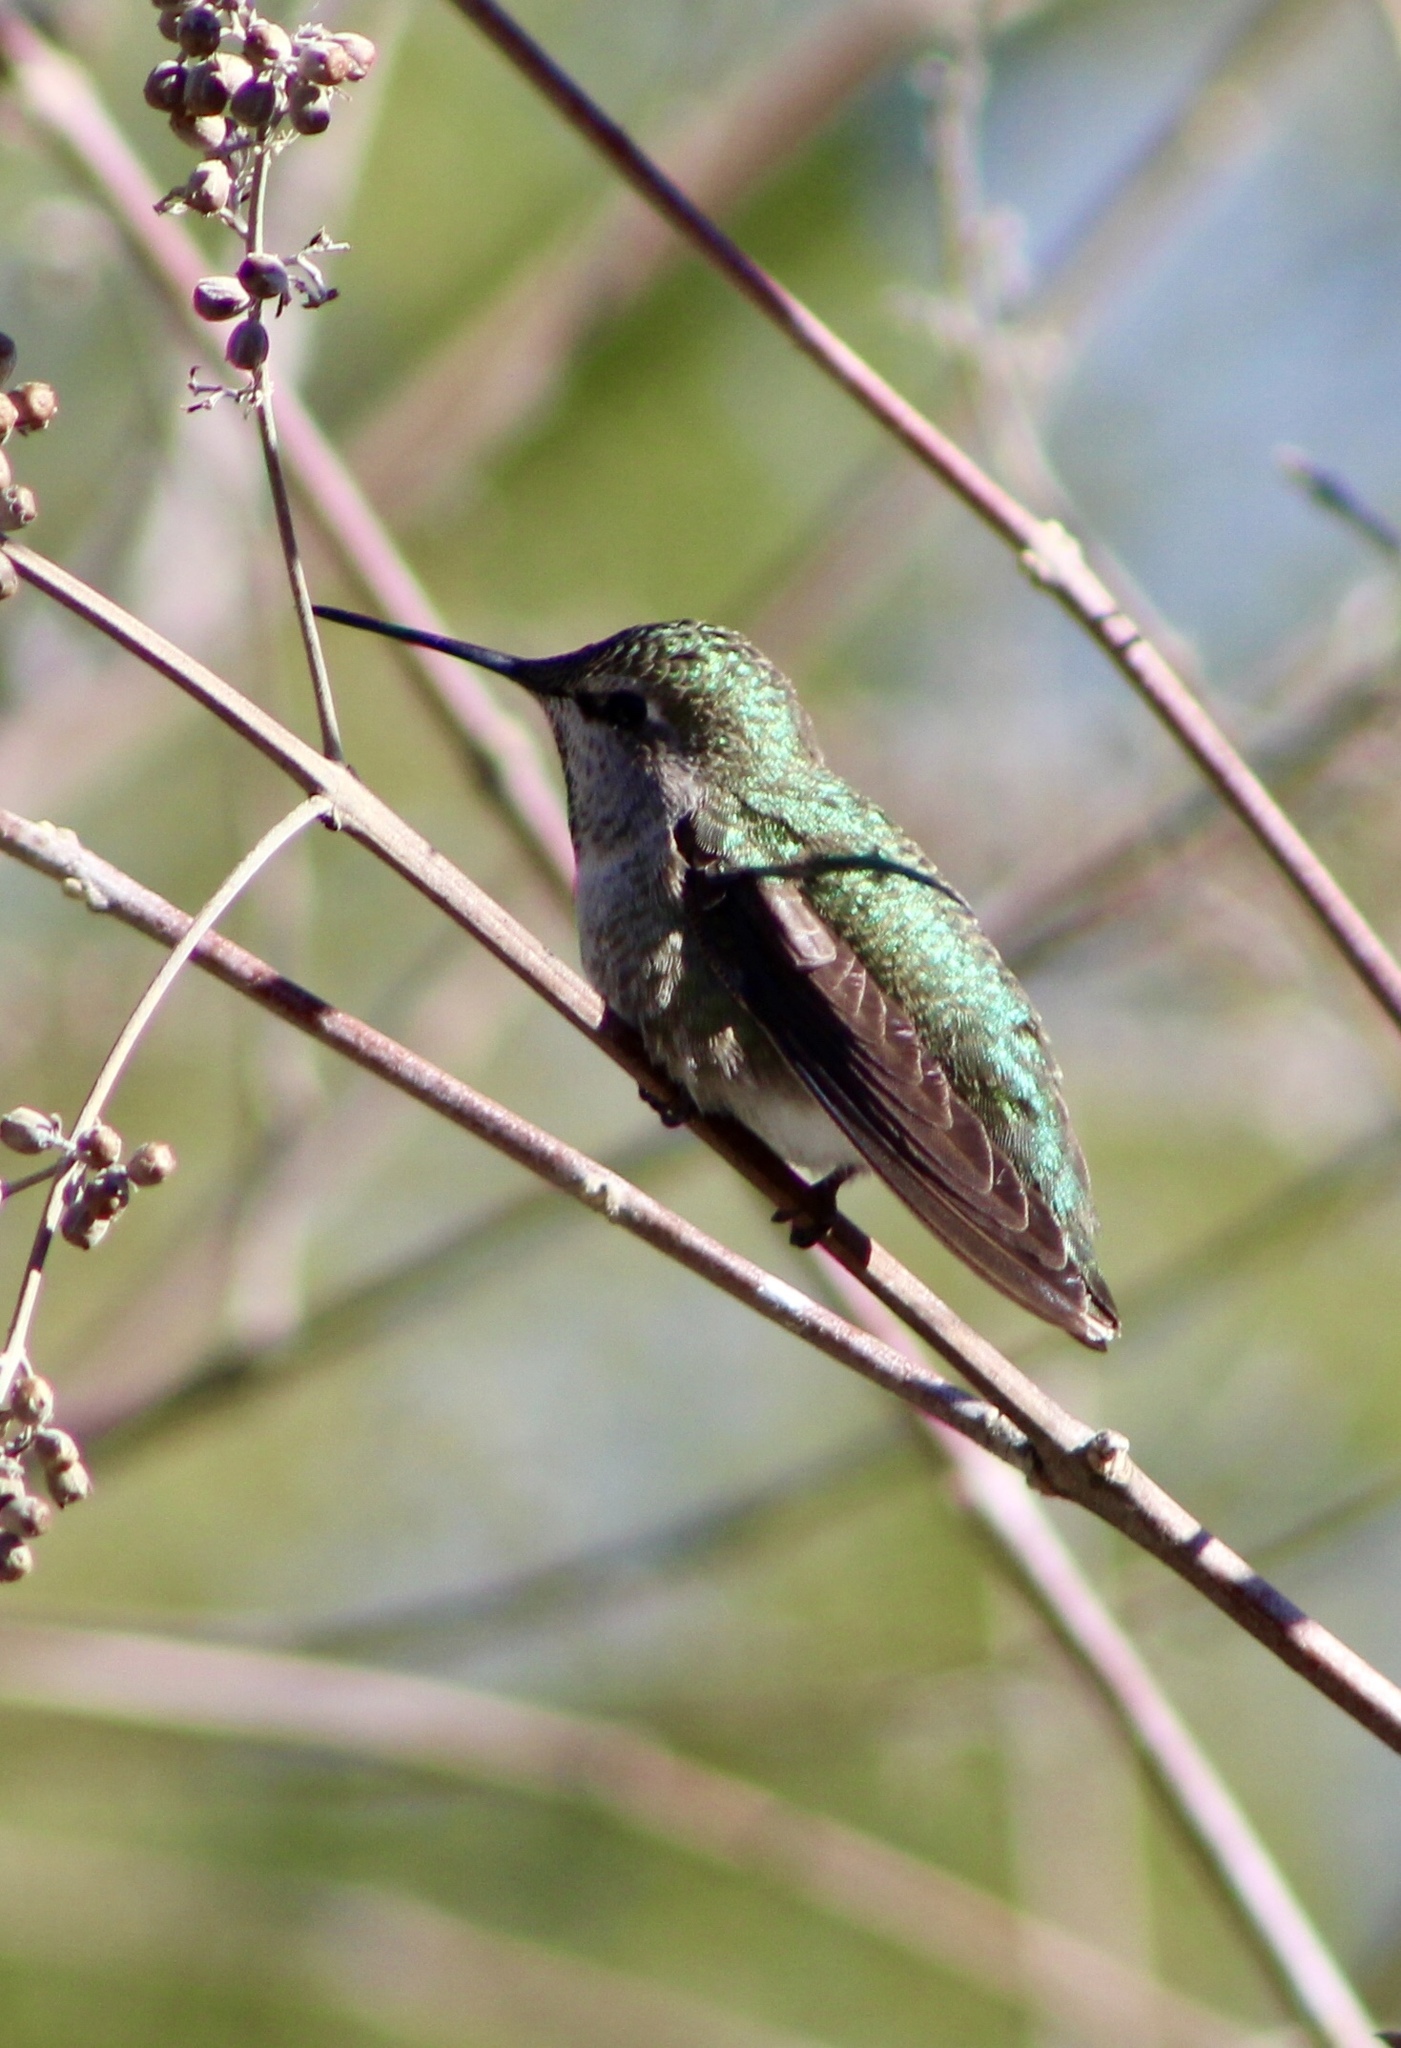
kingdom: Animalia
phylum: Chordata
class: Aves
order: Apodiformes
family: Trochilidae
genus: Calypte
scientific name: Calypte anna
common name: Anna's hummingbird
